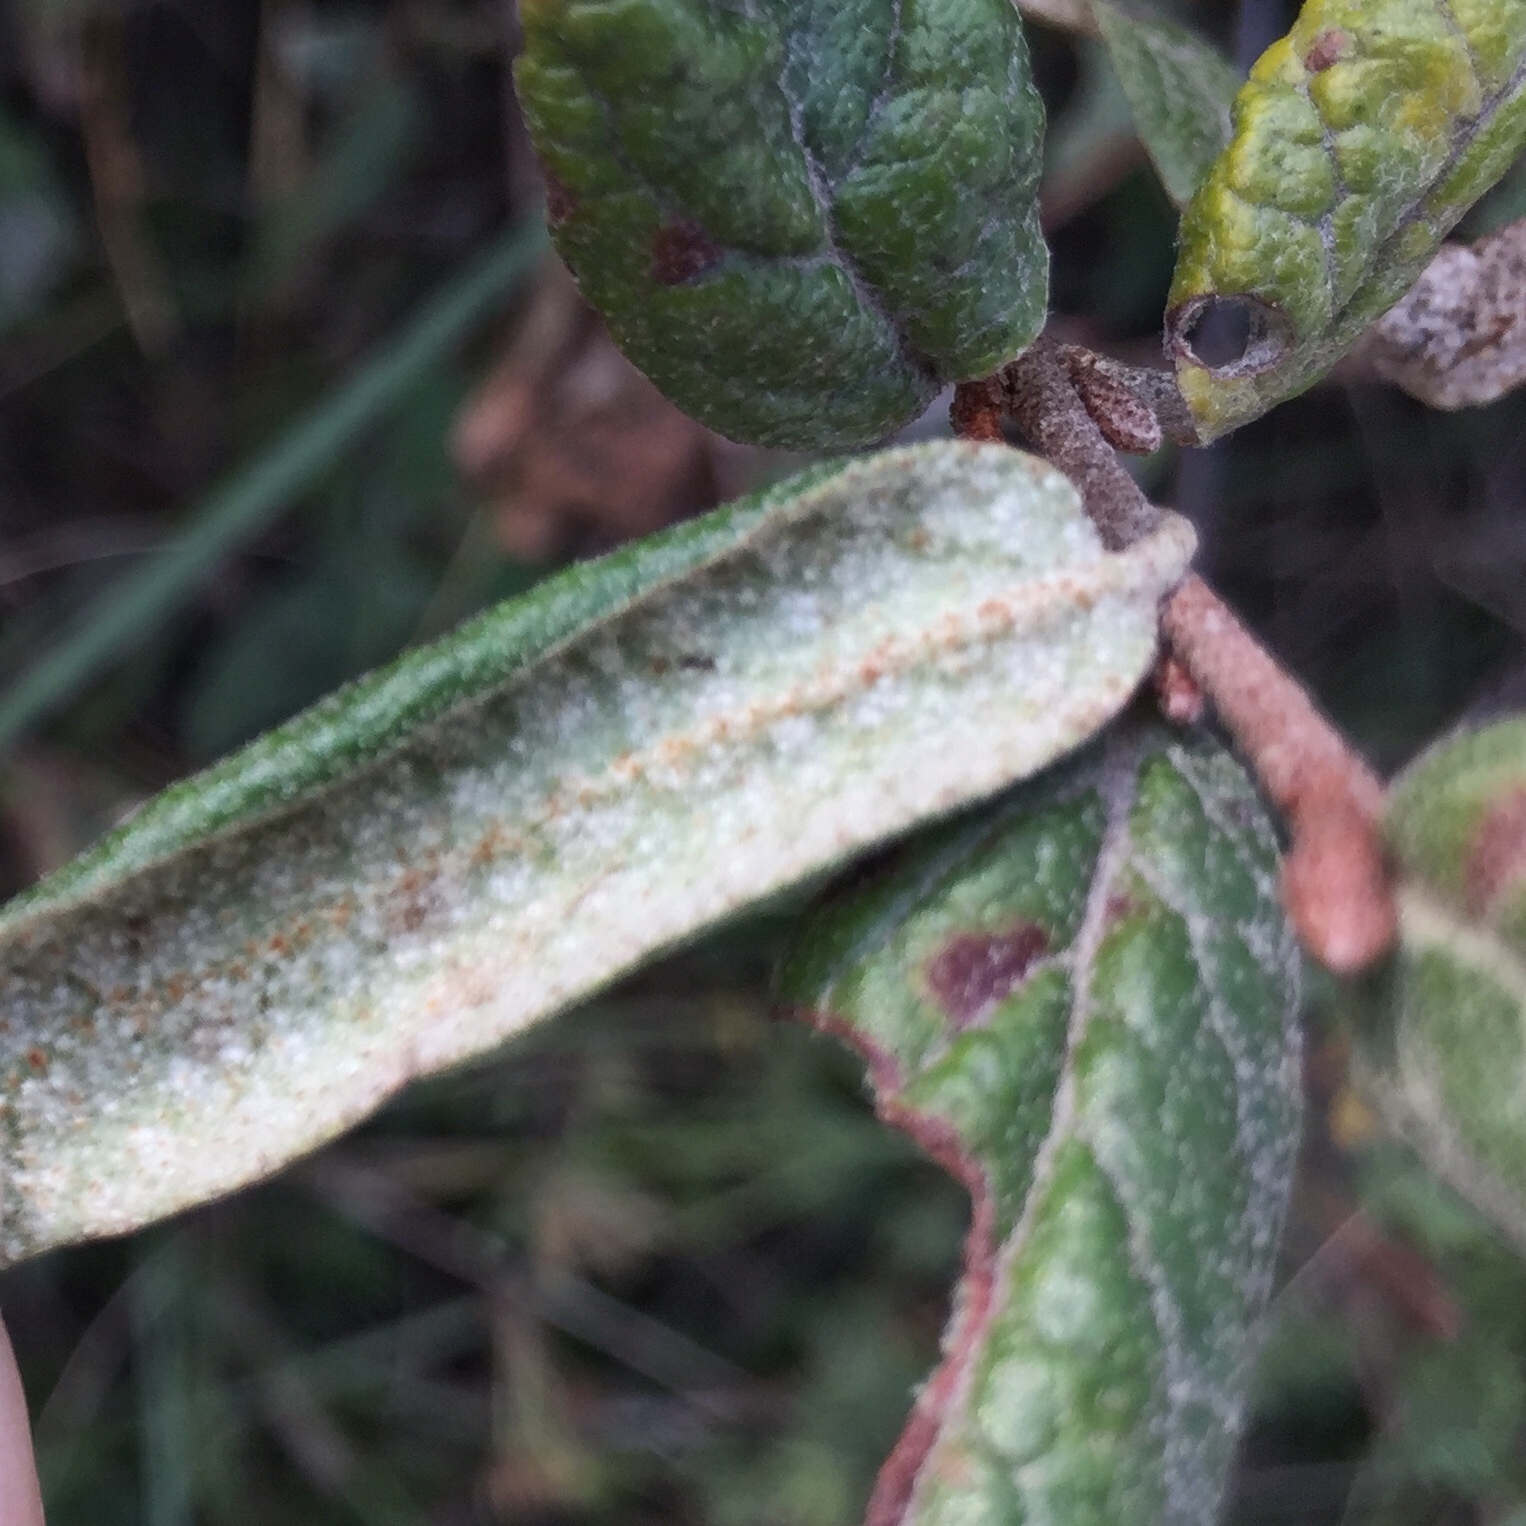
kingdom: Plantae
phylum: Tracheophyta
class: Magnoliopsida
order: Rosales
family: Elaeagnaceae
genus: Shepherdia
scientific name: Shepherdia canadensis
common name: Soapberry
